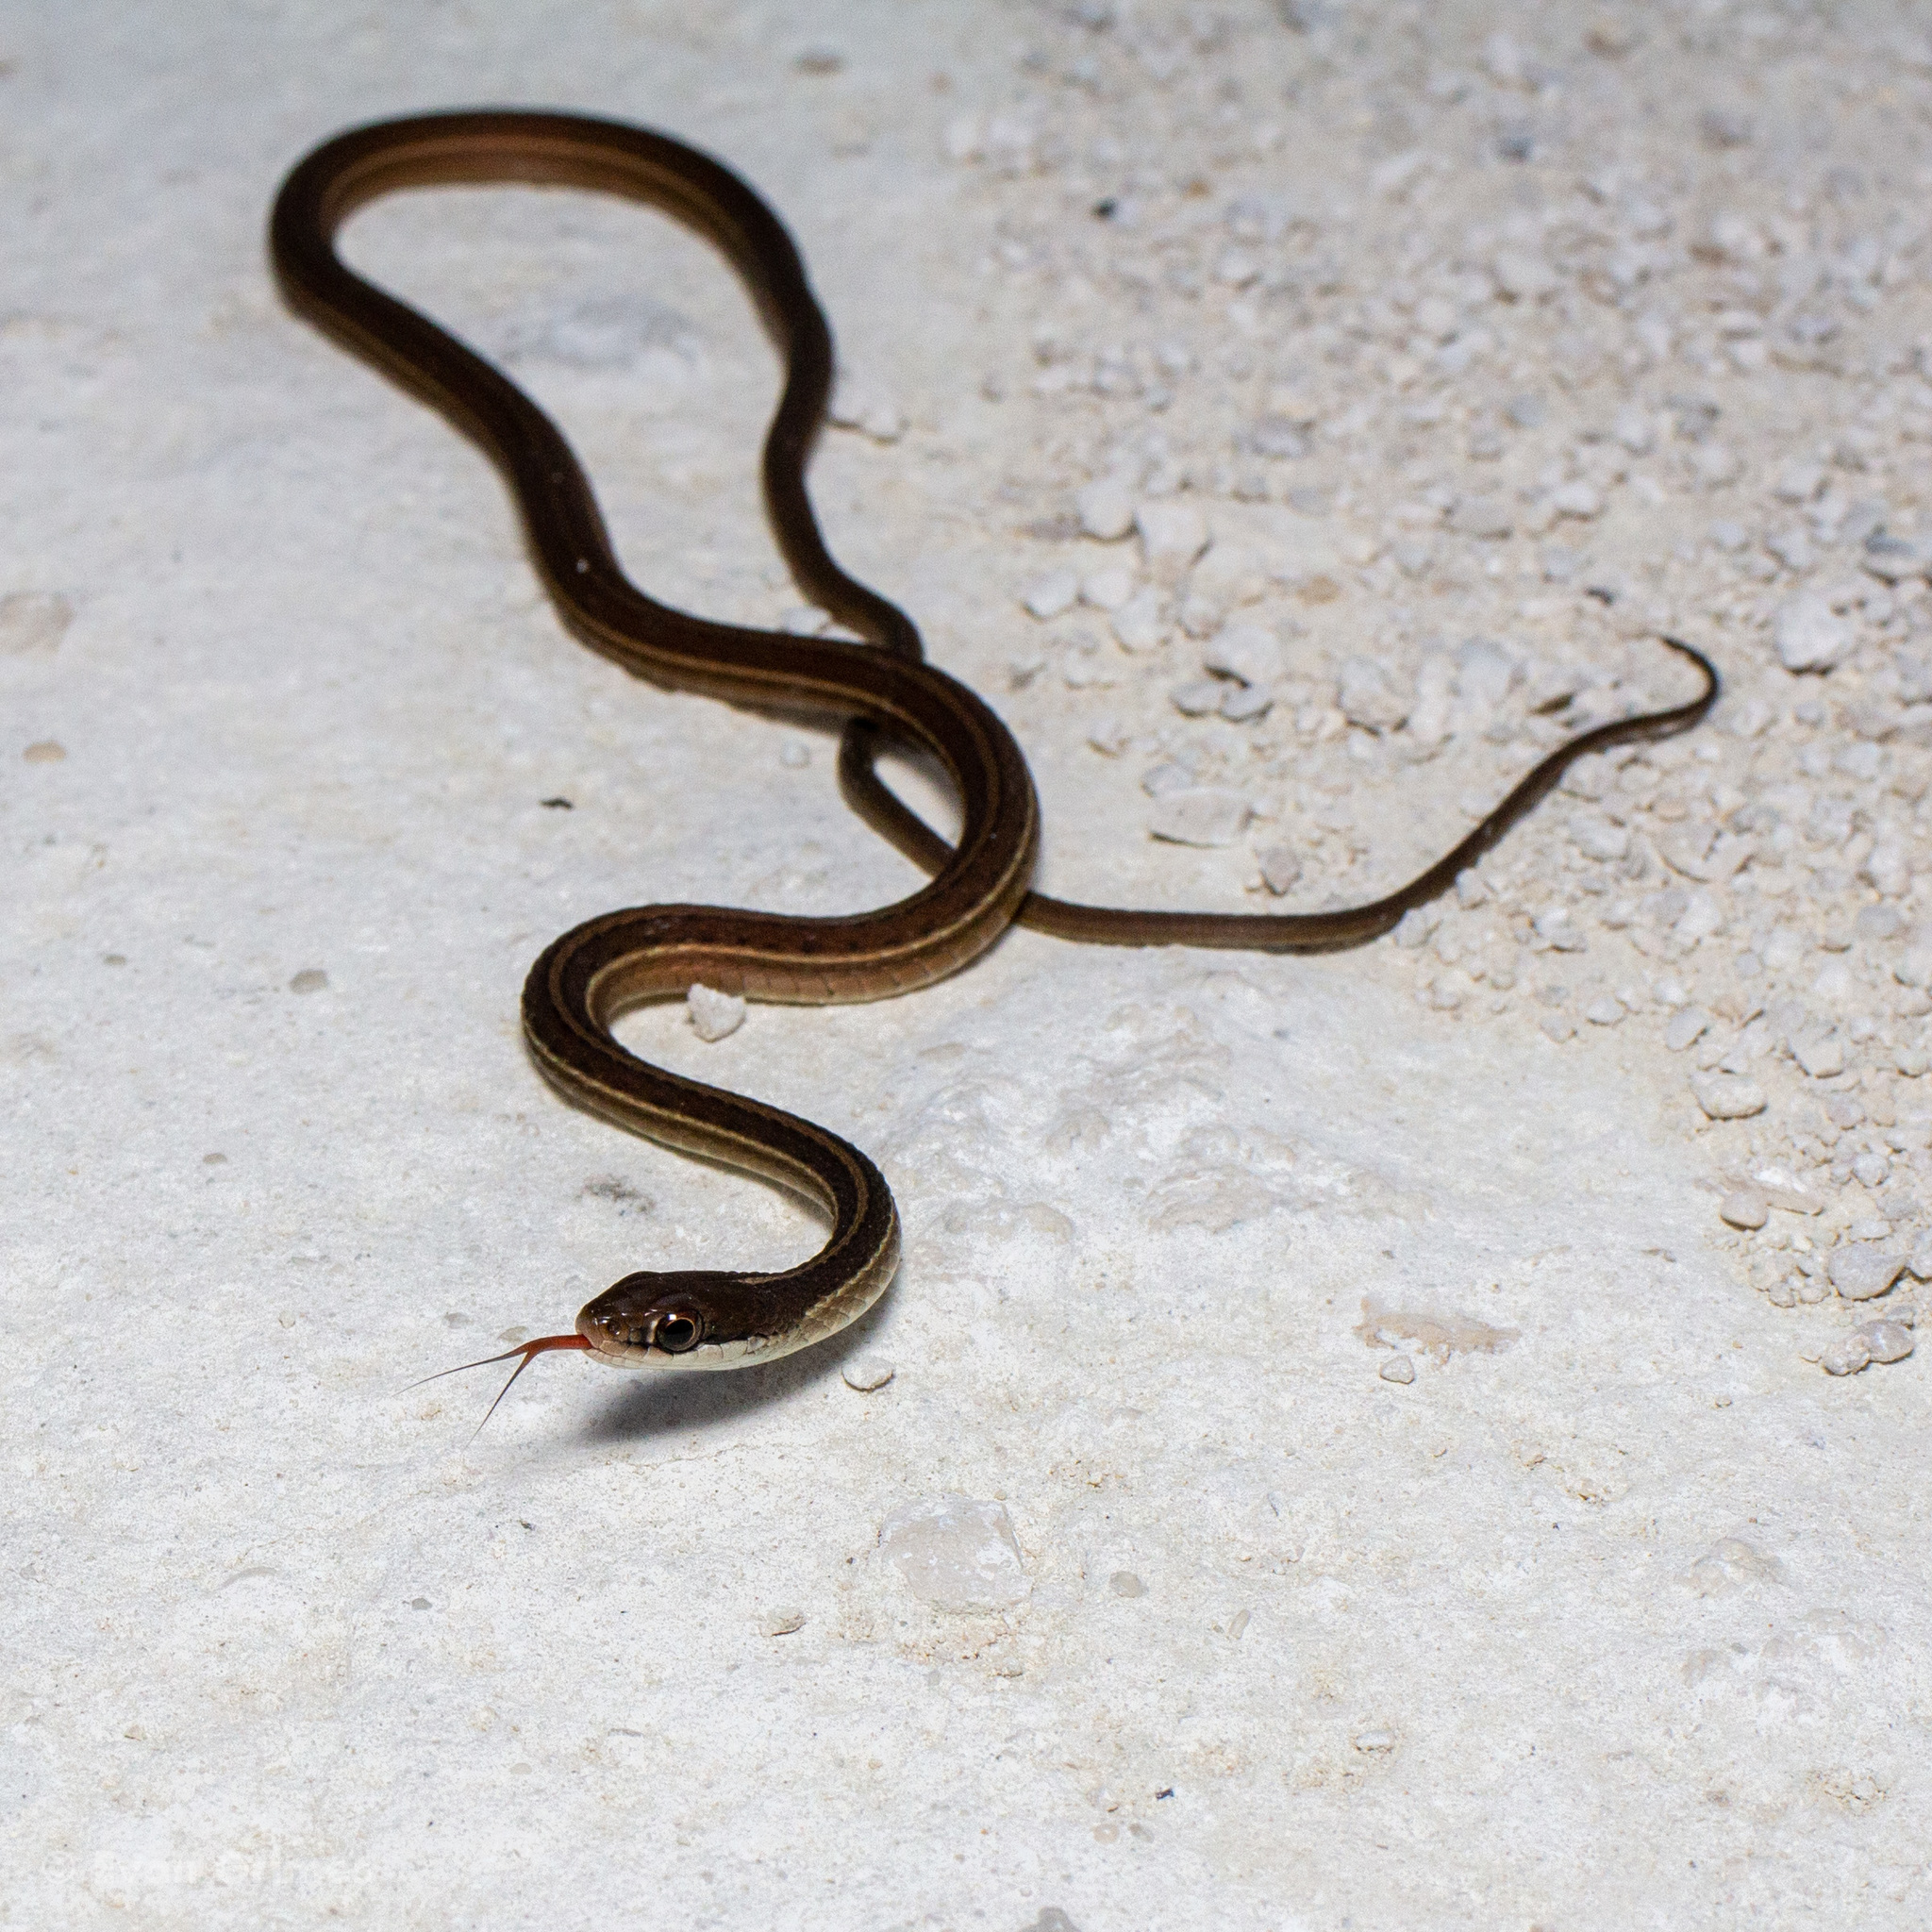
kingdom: Animalia
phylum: Chordata
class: Squamata
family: Colubridae
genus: Thamnophis
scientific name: Thamnophis saurita
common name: Eastern ribbonsnake
